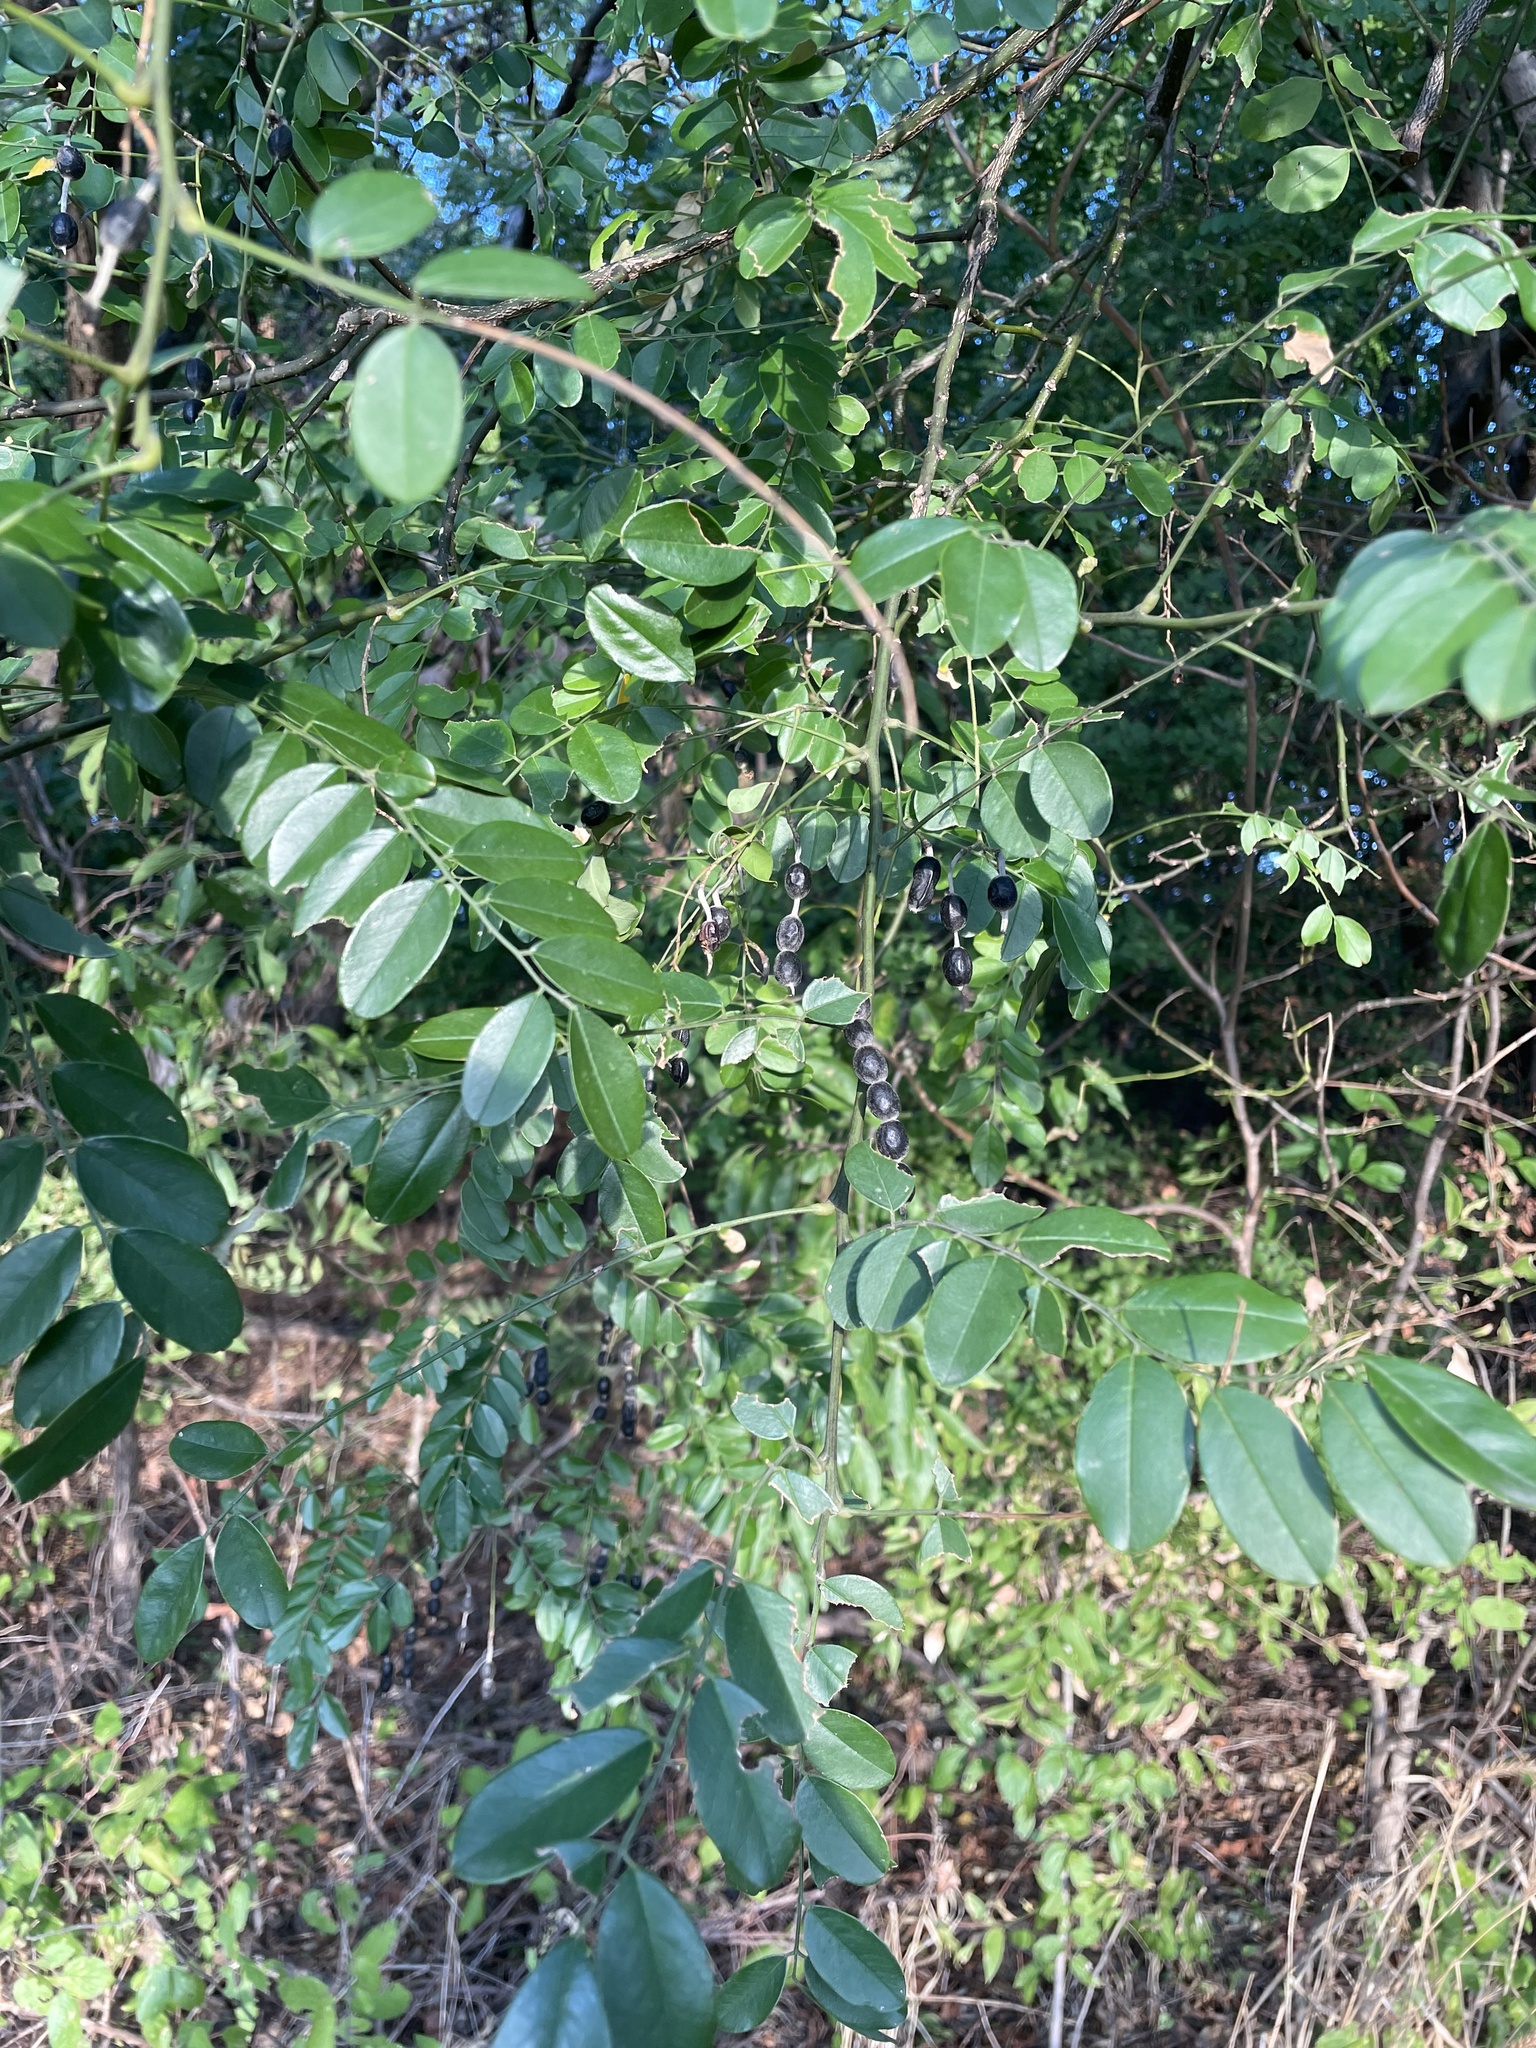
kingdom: Plantae
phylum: Tracheophyta
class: Magnoliopsida
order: Fabales
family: Fabaceae
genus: Styphnolobium
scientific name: Styphnolobium affine
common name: Texas sophora
